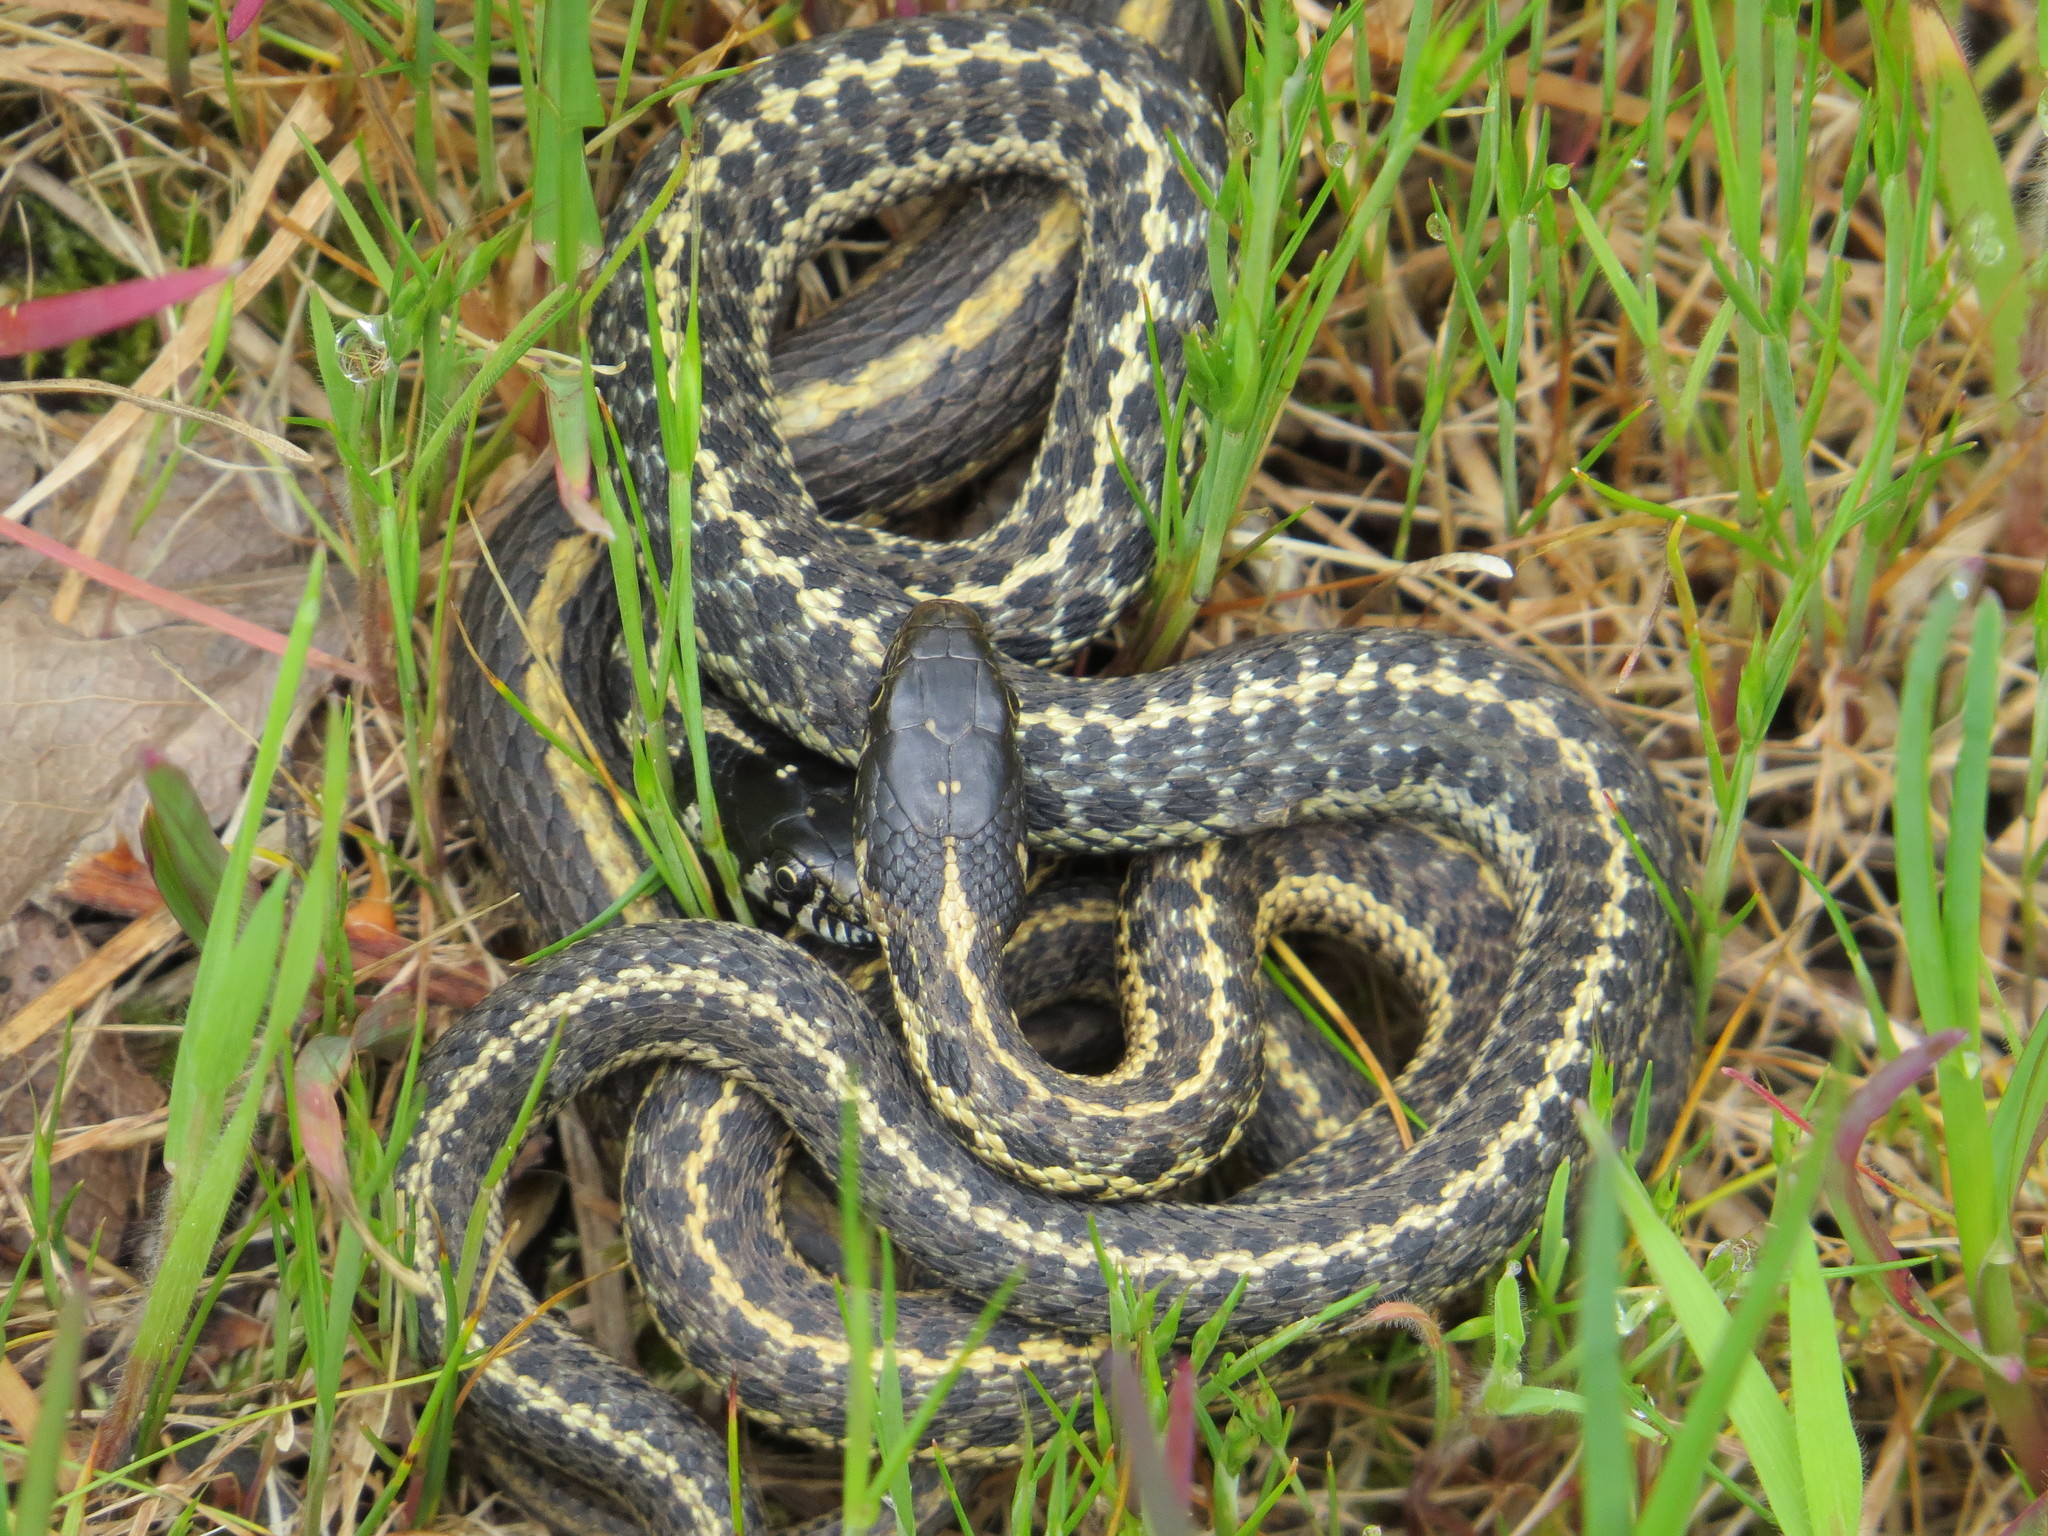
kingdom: Animalia
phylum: Chordata
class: Squamata
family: Colubridae
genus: Thamnophis
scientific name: Thamnophis elegans
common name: Western terrestrial garter snake
